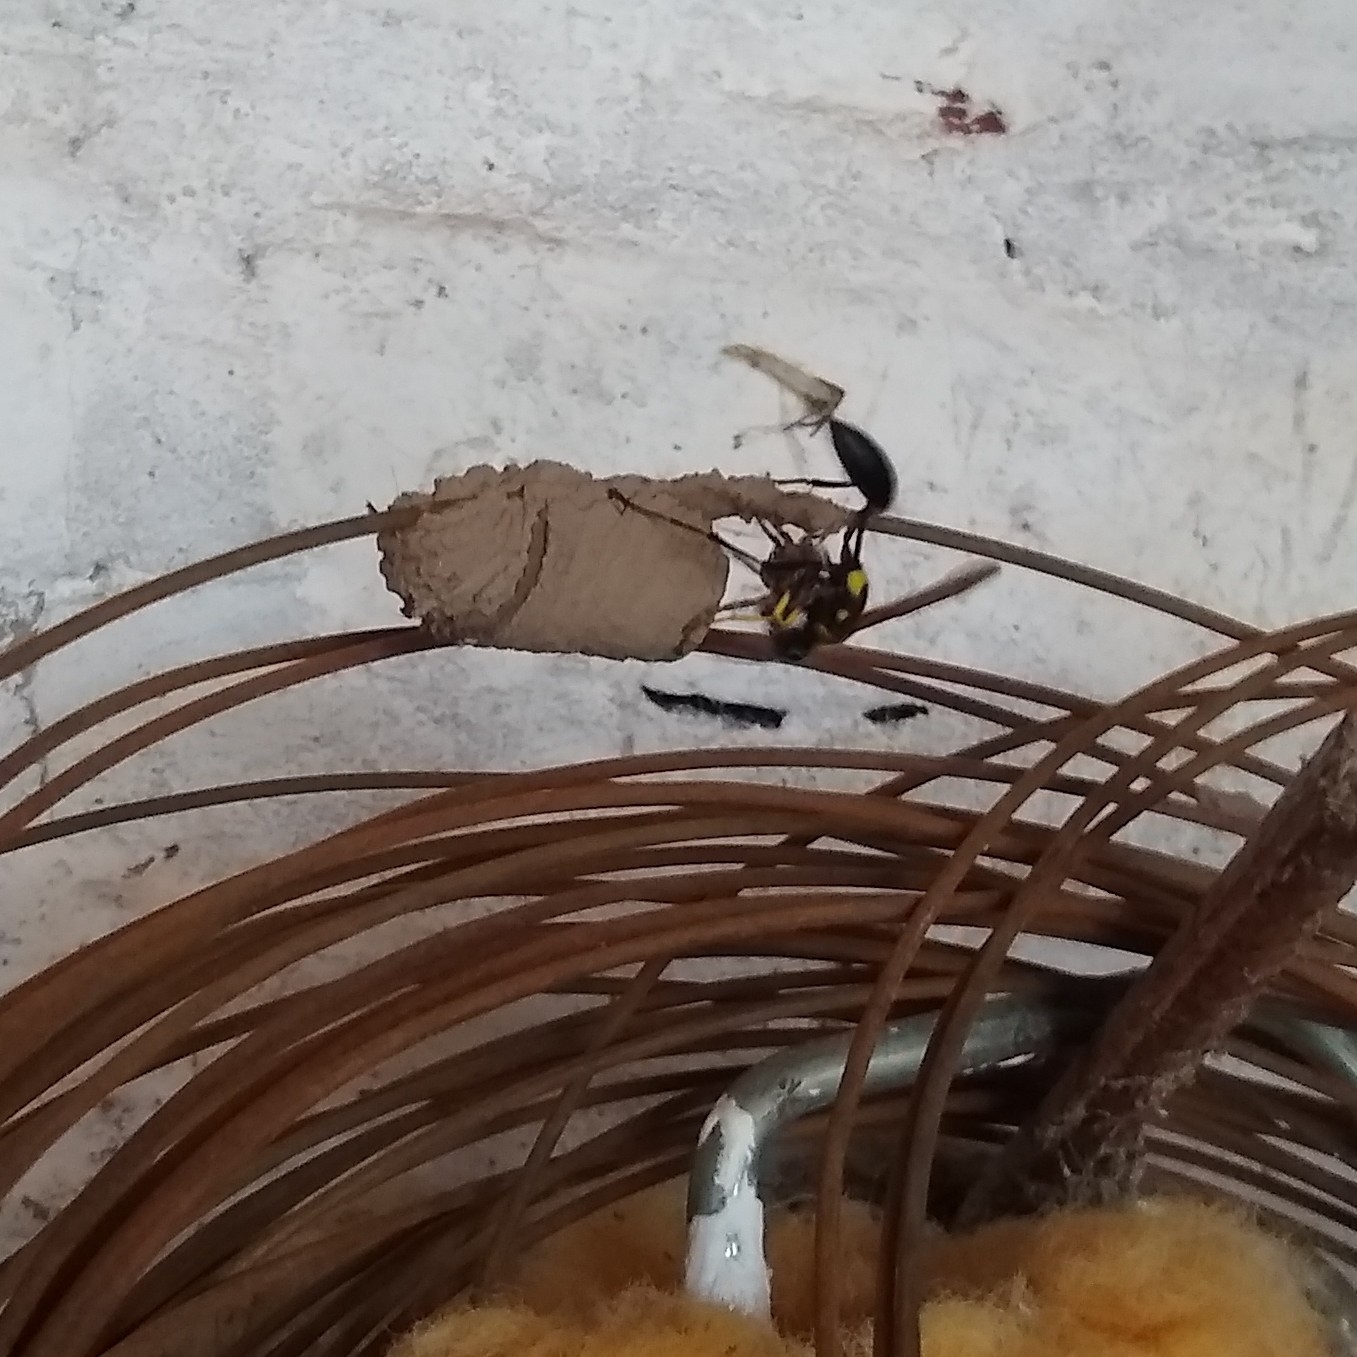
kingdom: Animalia
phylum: Arthropoda
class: Insecta
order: Hymenoptera
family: Sphecidae
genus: Sceliphron
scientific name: Sceliphron asiaticum
